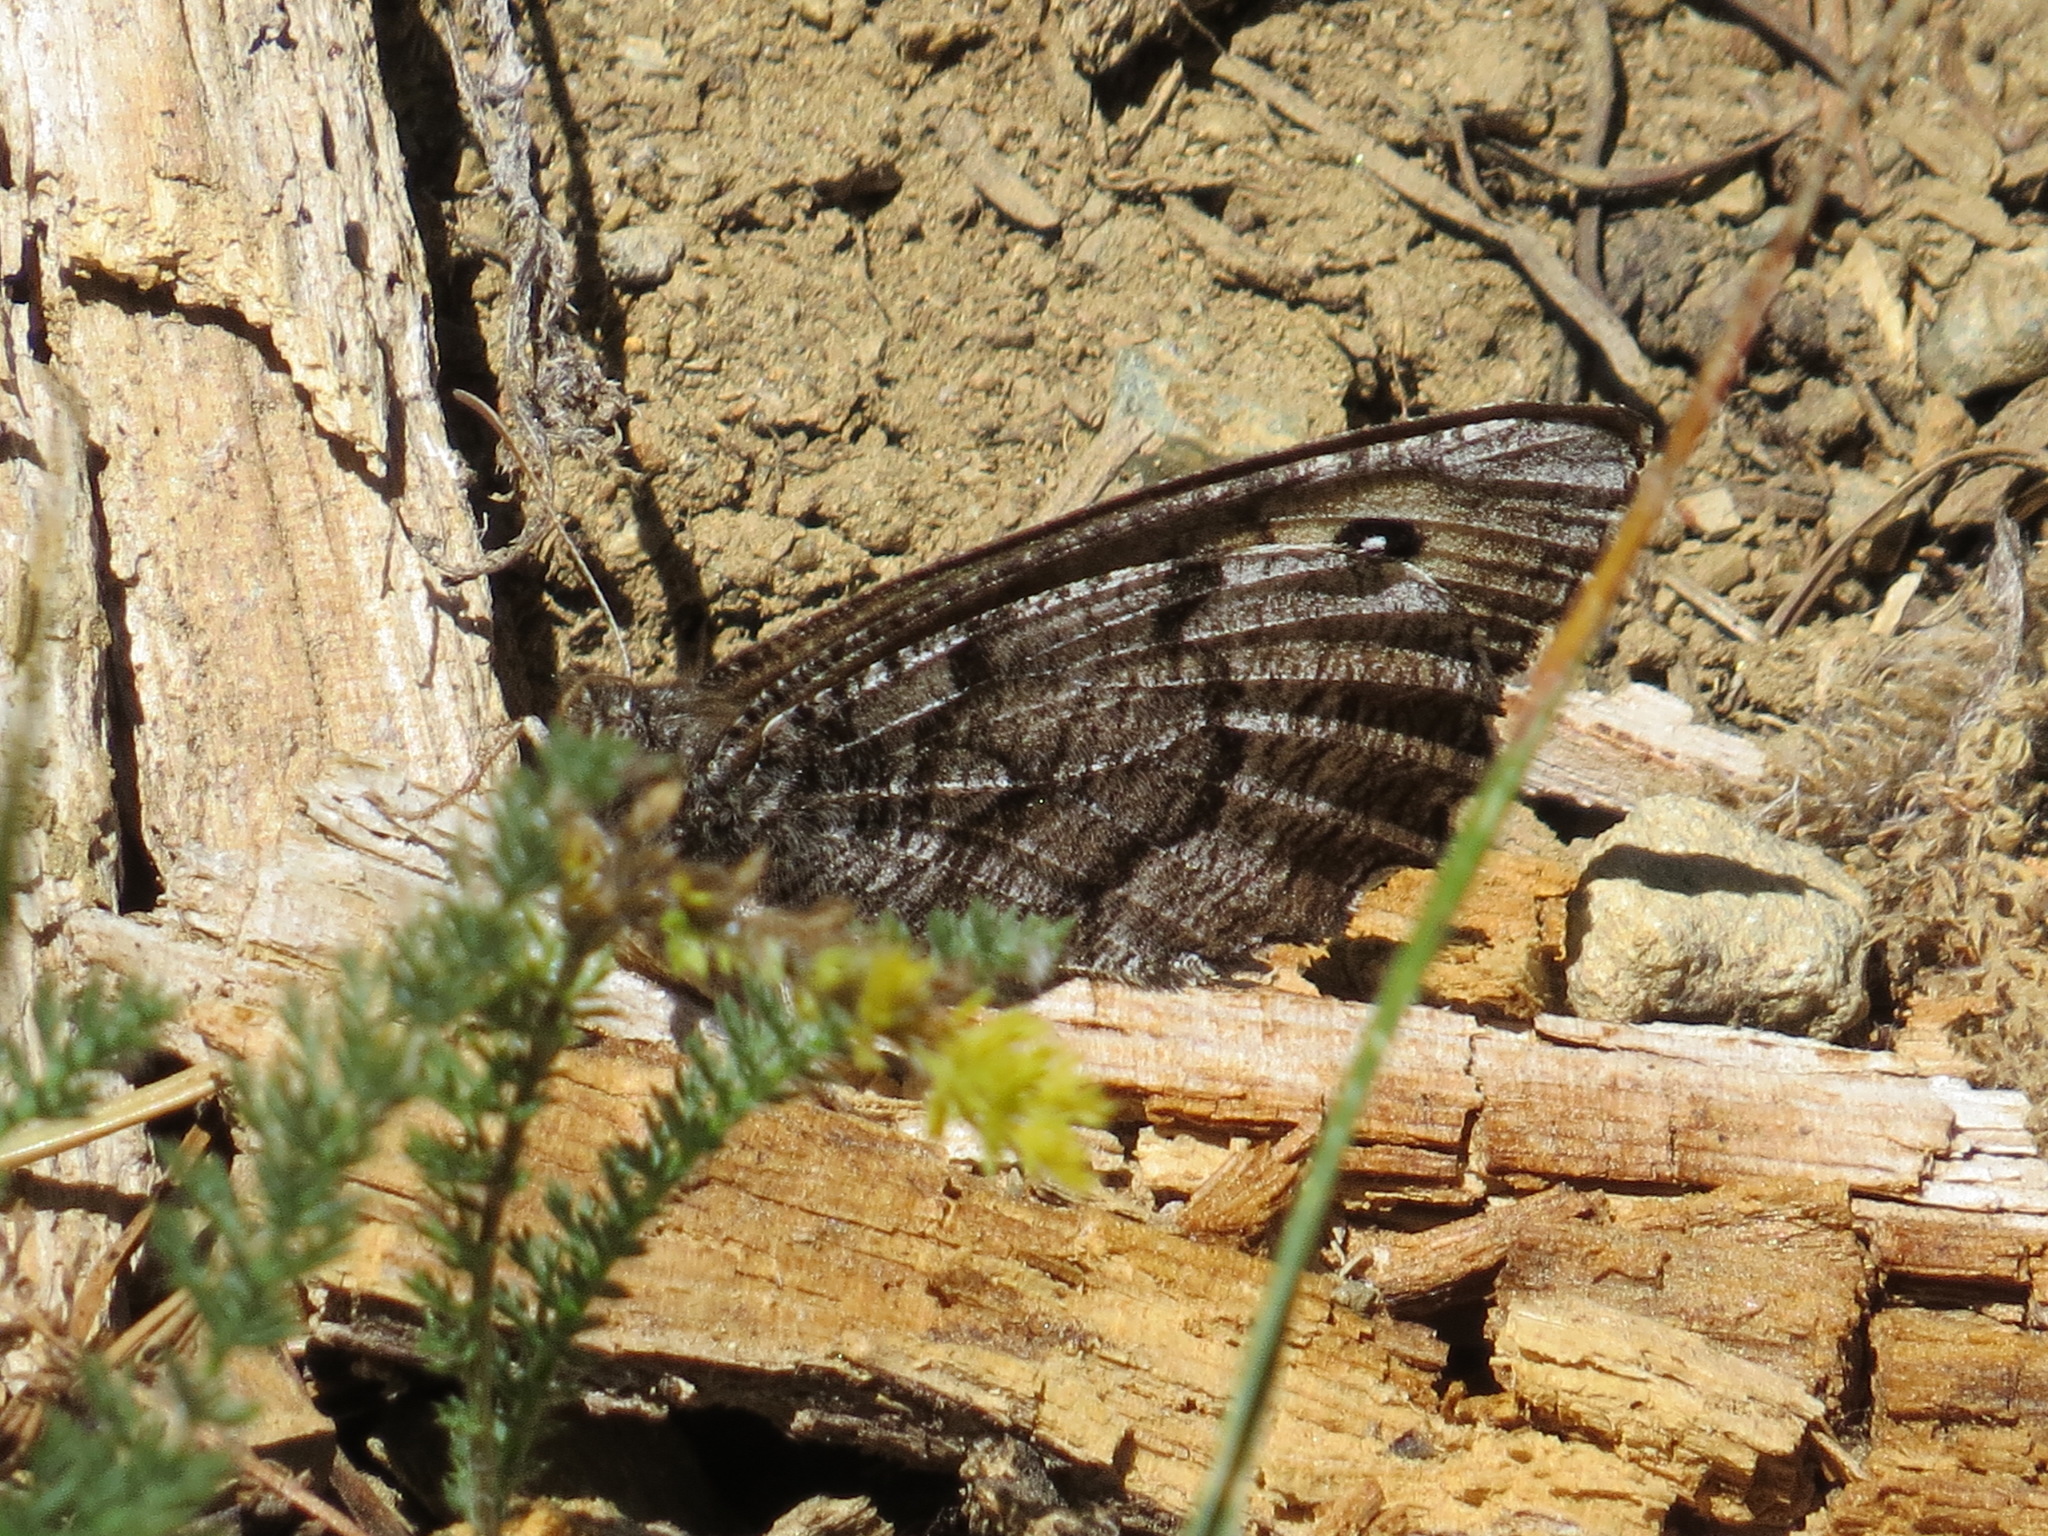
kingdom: Animalia
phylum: Arthropoda
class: Insecta
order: Lepidoptera
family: Nymphalidae
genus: Oeneis
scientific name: Oeneis nevadensis
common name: Great arctic
